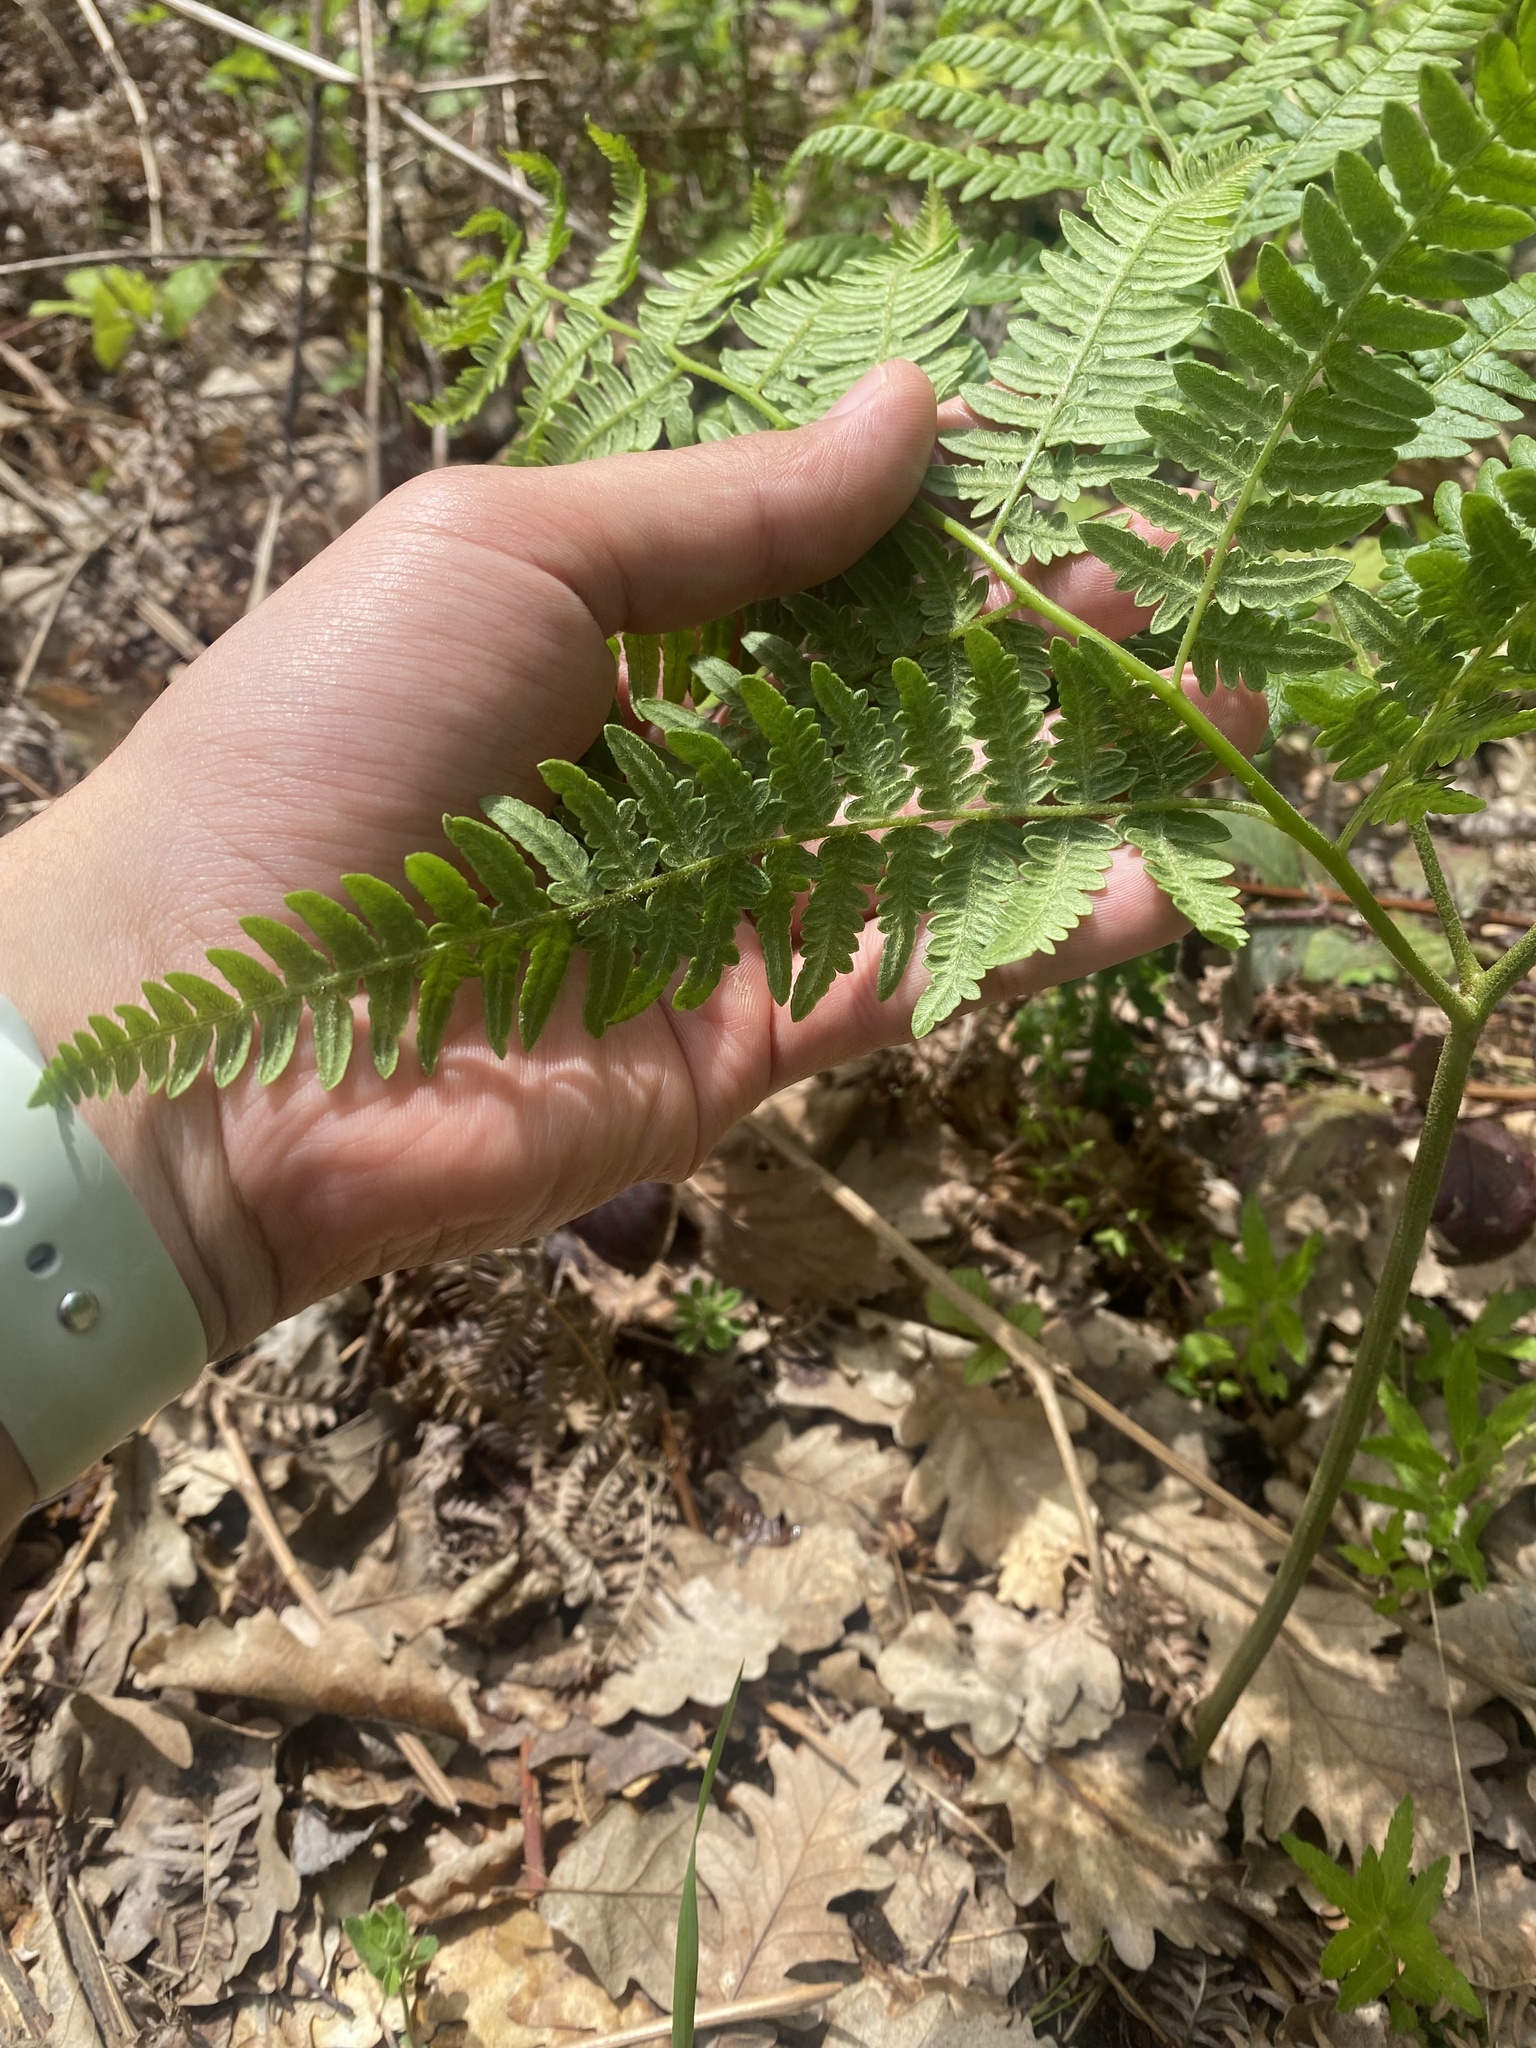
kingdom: Plantae
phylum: Tracheophyta
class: Polypodiopsida
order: Polypodiales
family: Dennstaedtiaceae
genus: Pteridium
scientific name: Pteridium tauricum
